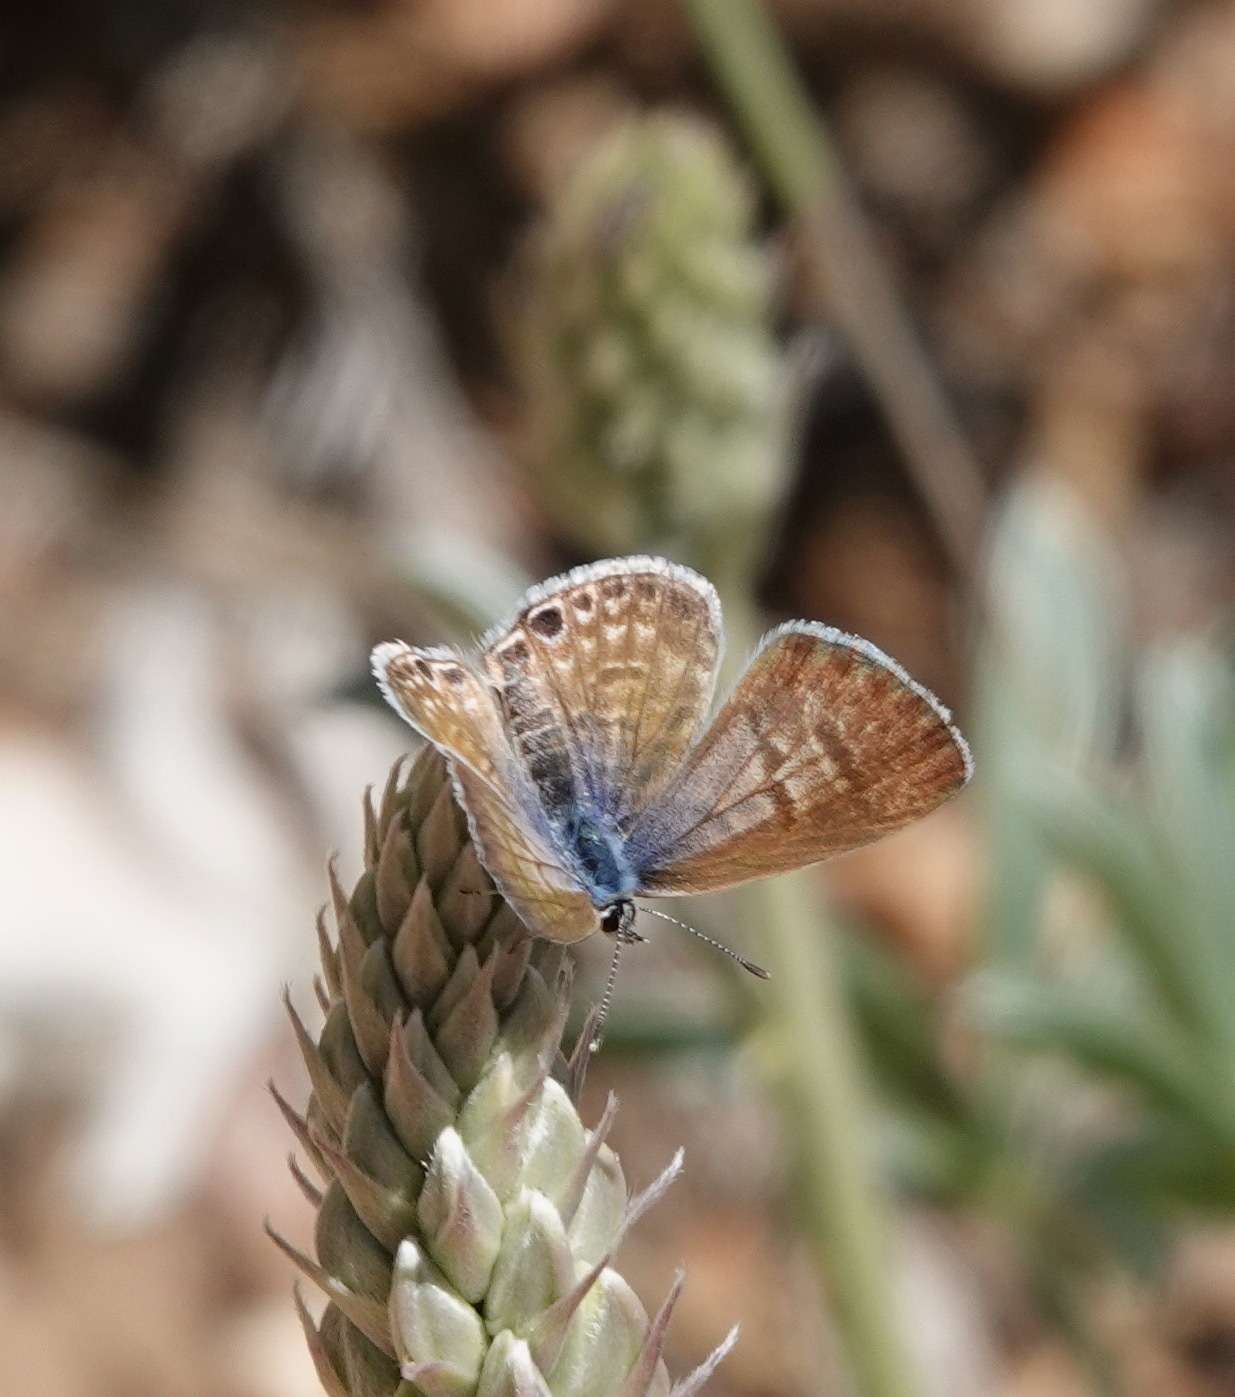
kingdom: Animalia
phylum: Arthropoda
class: Insecta
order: Lepidoptera
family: Lycaenidae
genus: Leptotes
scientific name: Leptotes marina
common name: Marine blue
